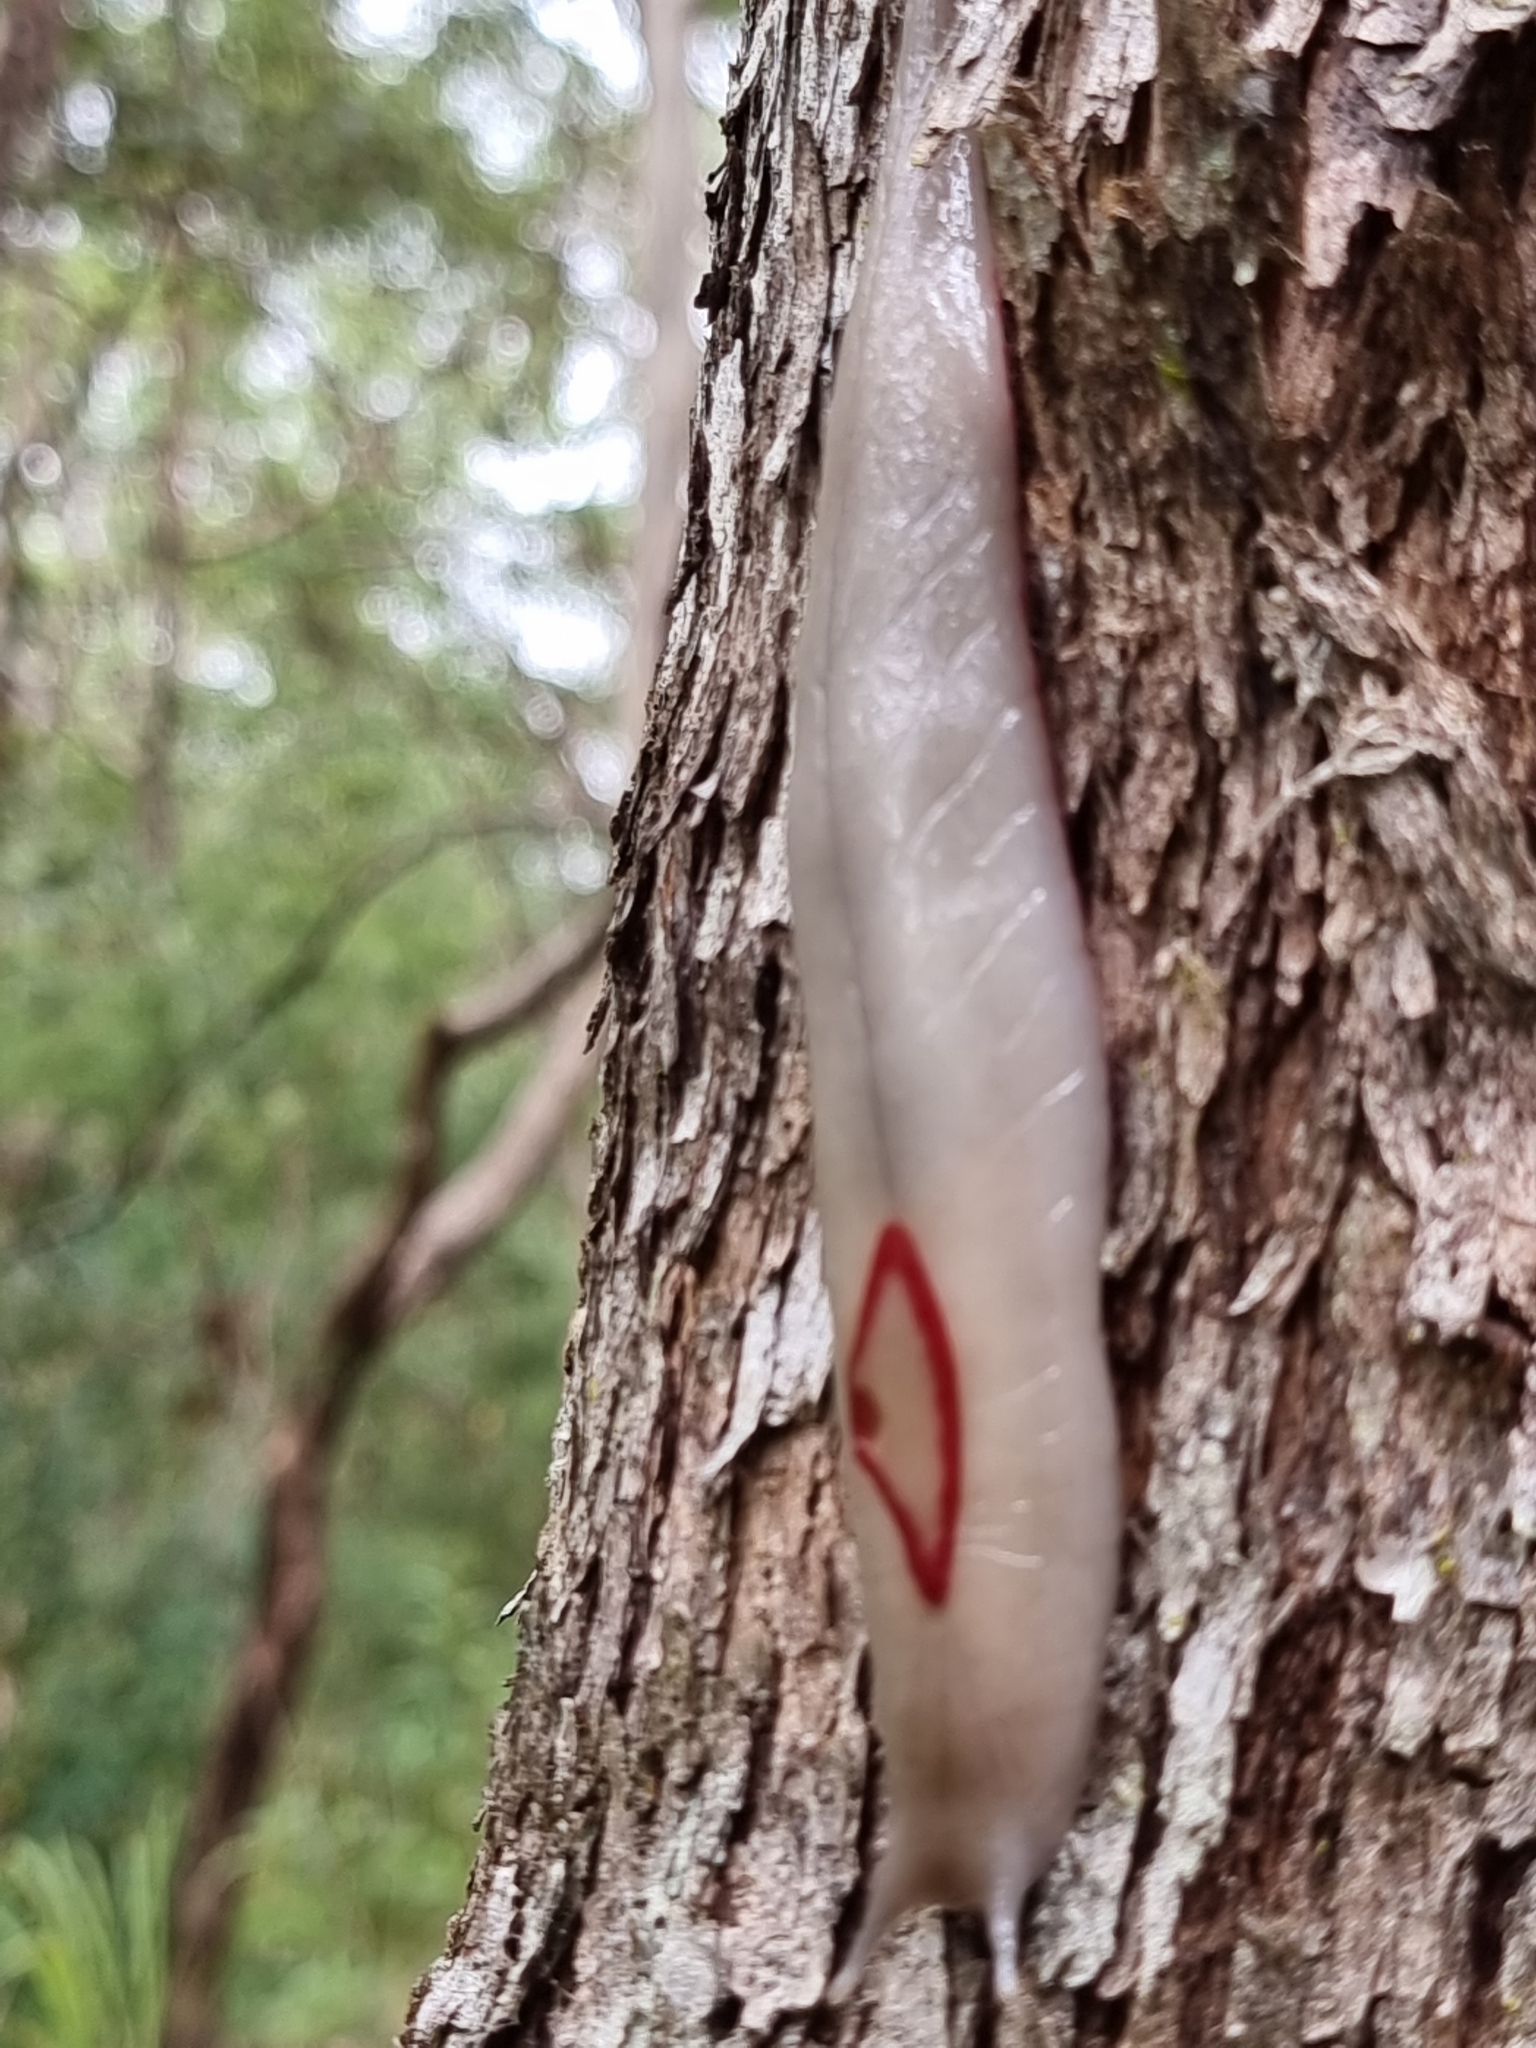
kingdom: Animalia
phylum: Mollusca
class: Gastropoda
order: Stylommatophora
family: Athoracophoridae
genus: Triboniophorus
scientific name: Triboniophorus graeffei
